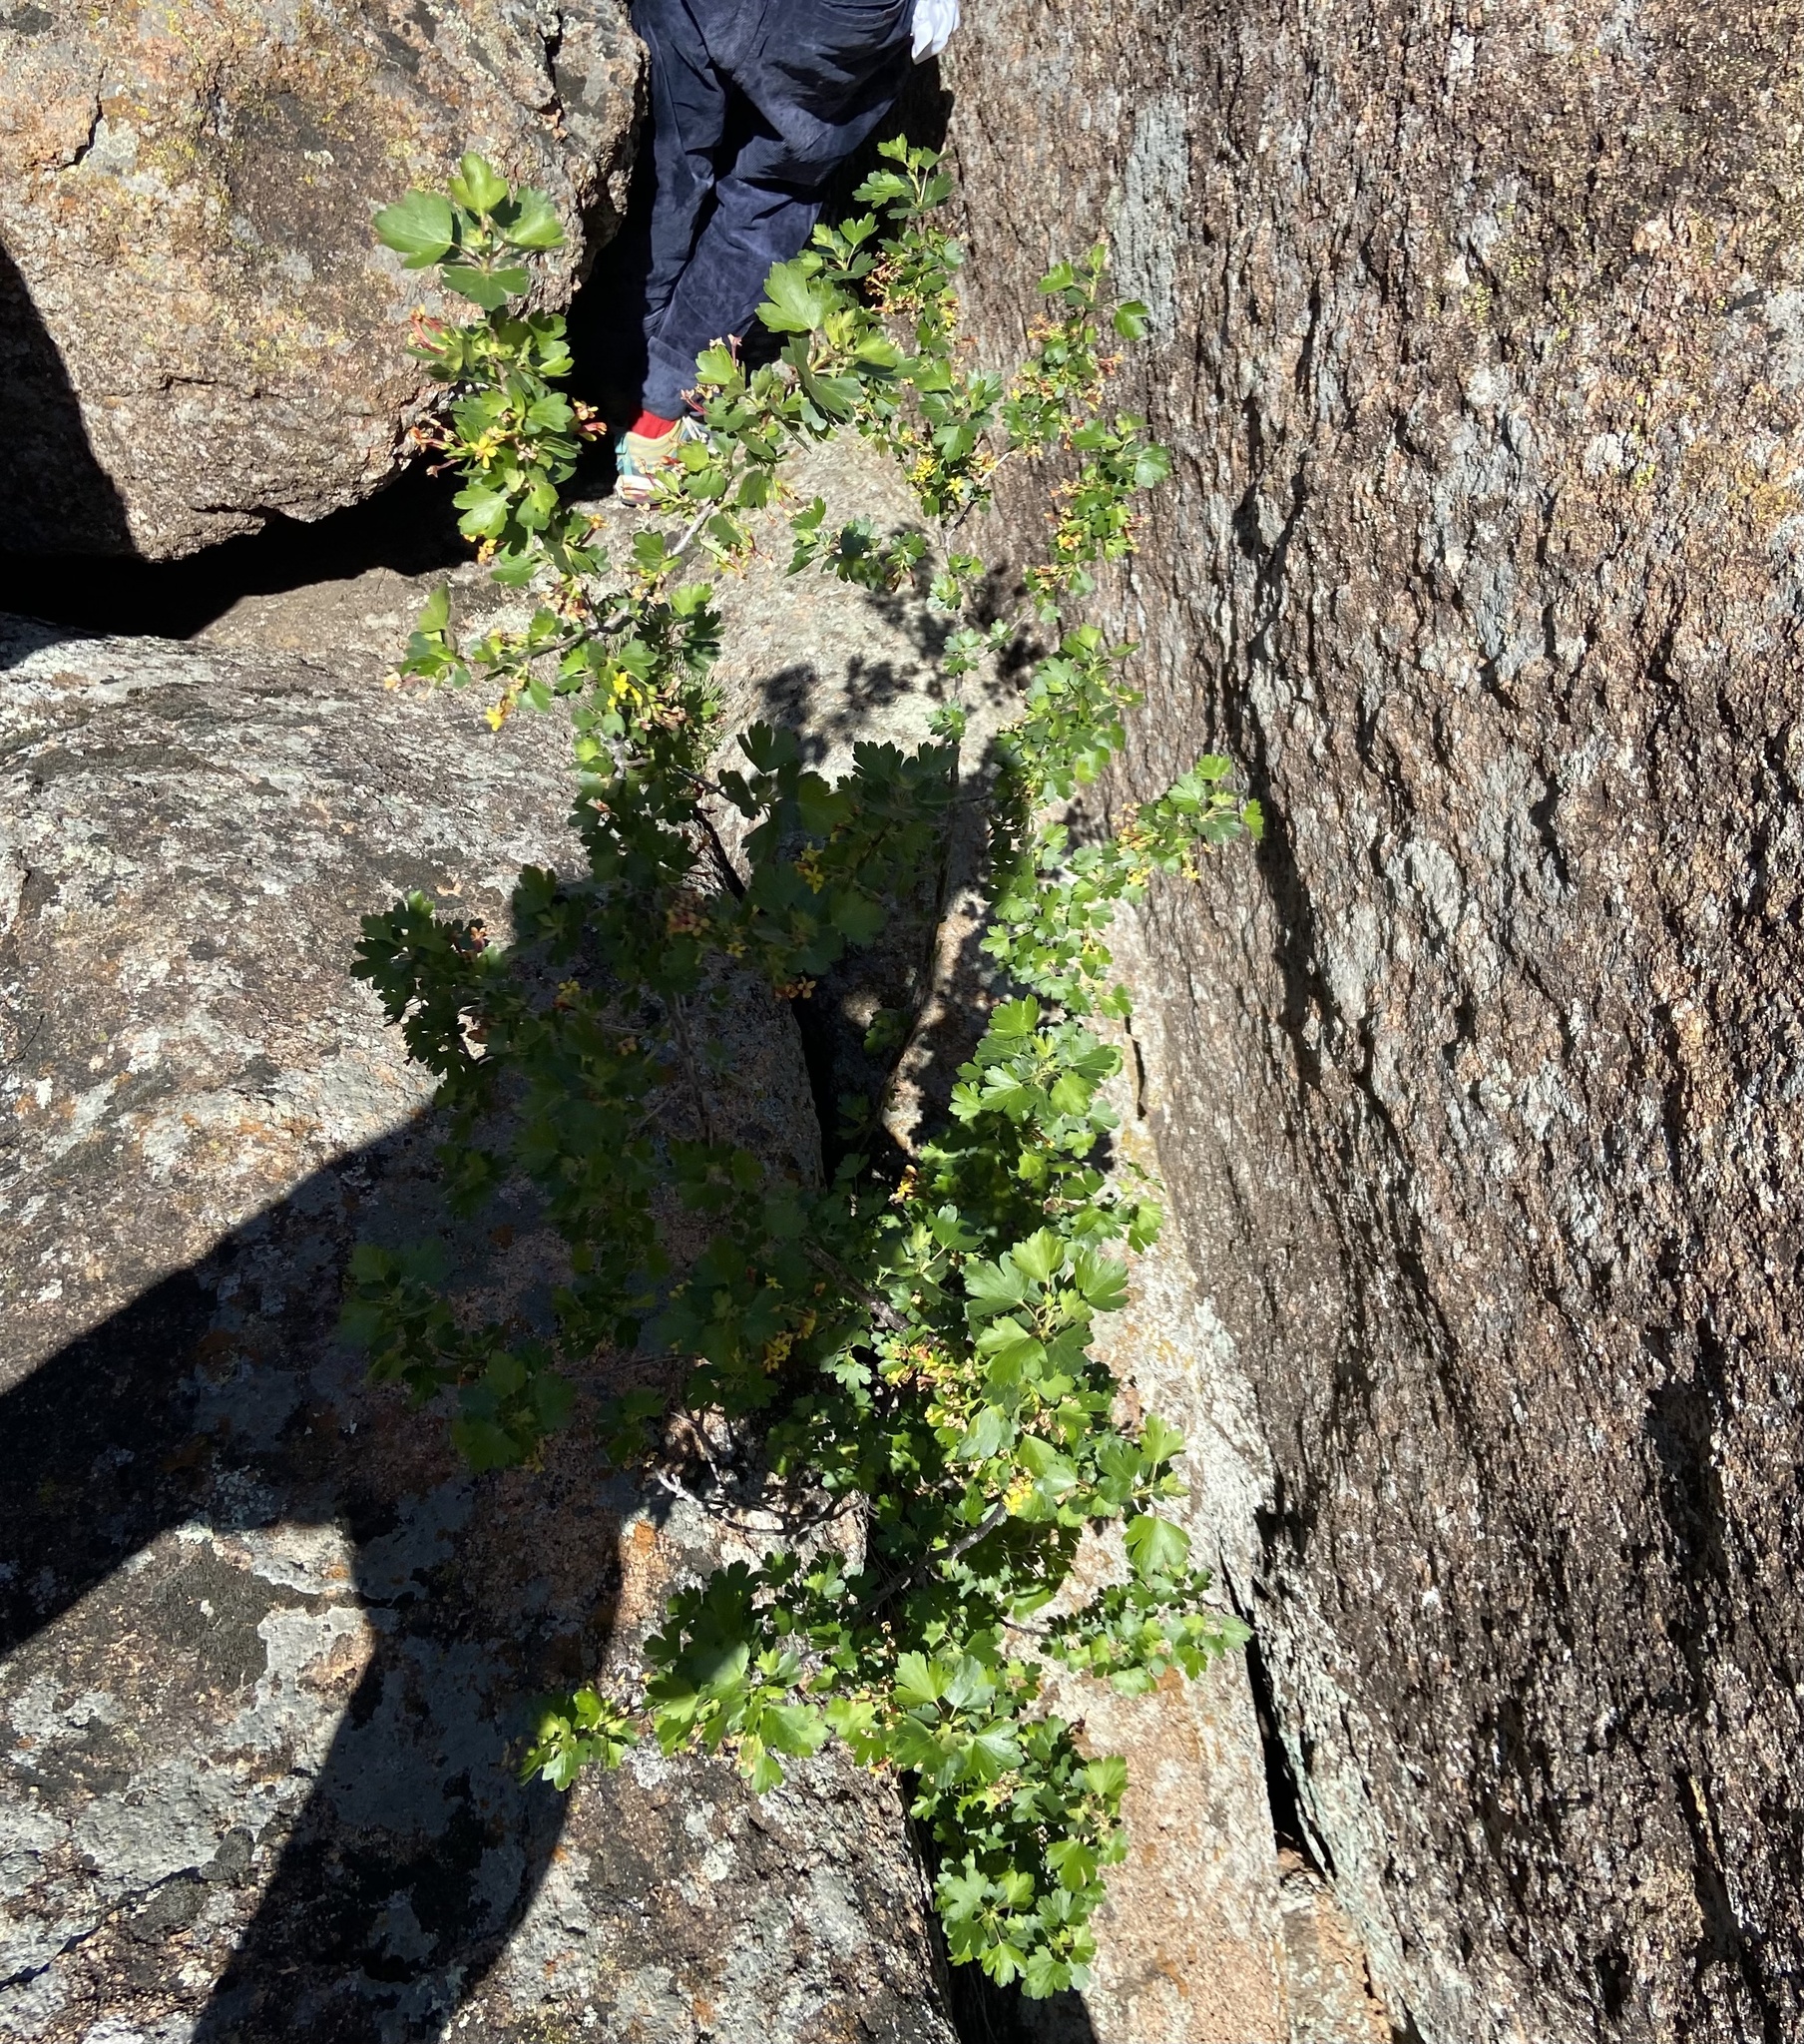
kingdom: Plantae
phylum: Tracheophyta
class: Magnoliopsida
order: Saxifragales
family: Grossulariaceae
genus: Ribes
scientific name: Ribes aureum
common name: Golden currant
